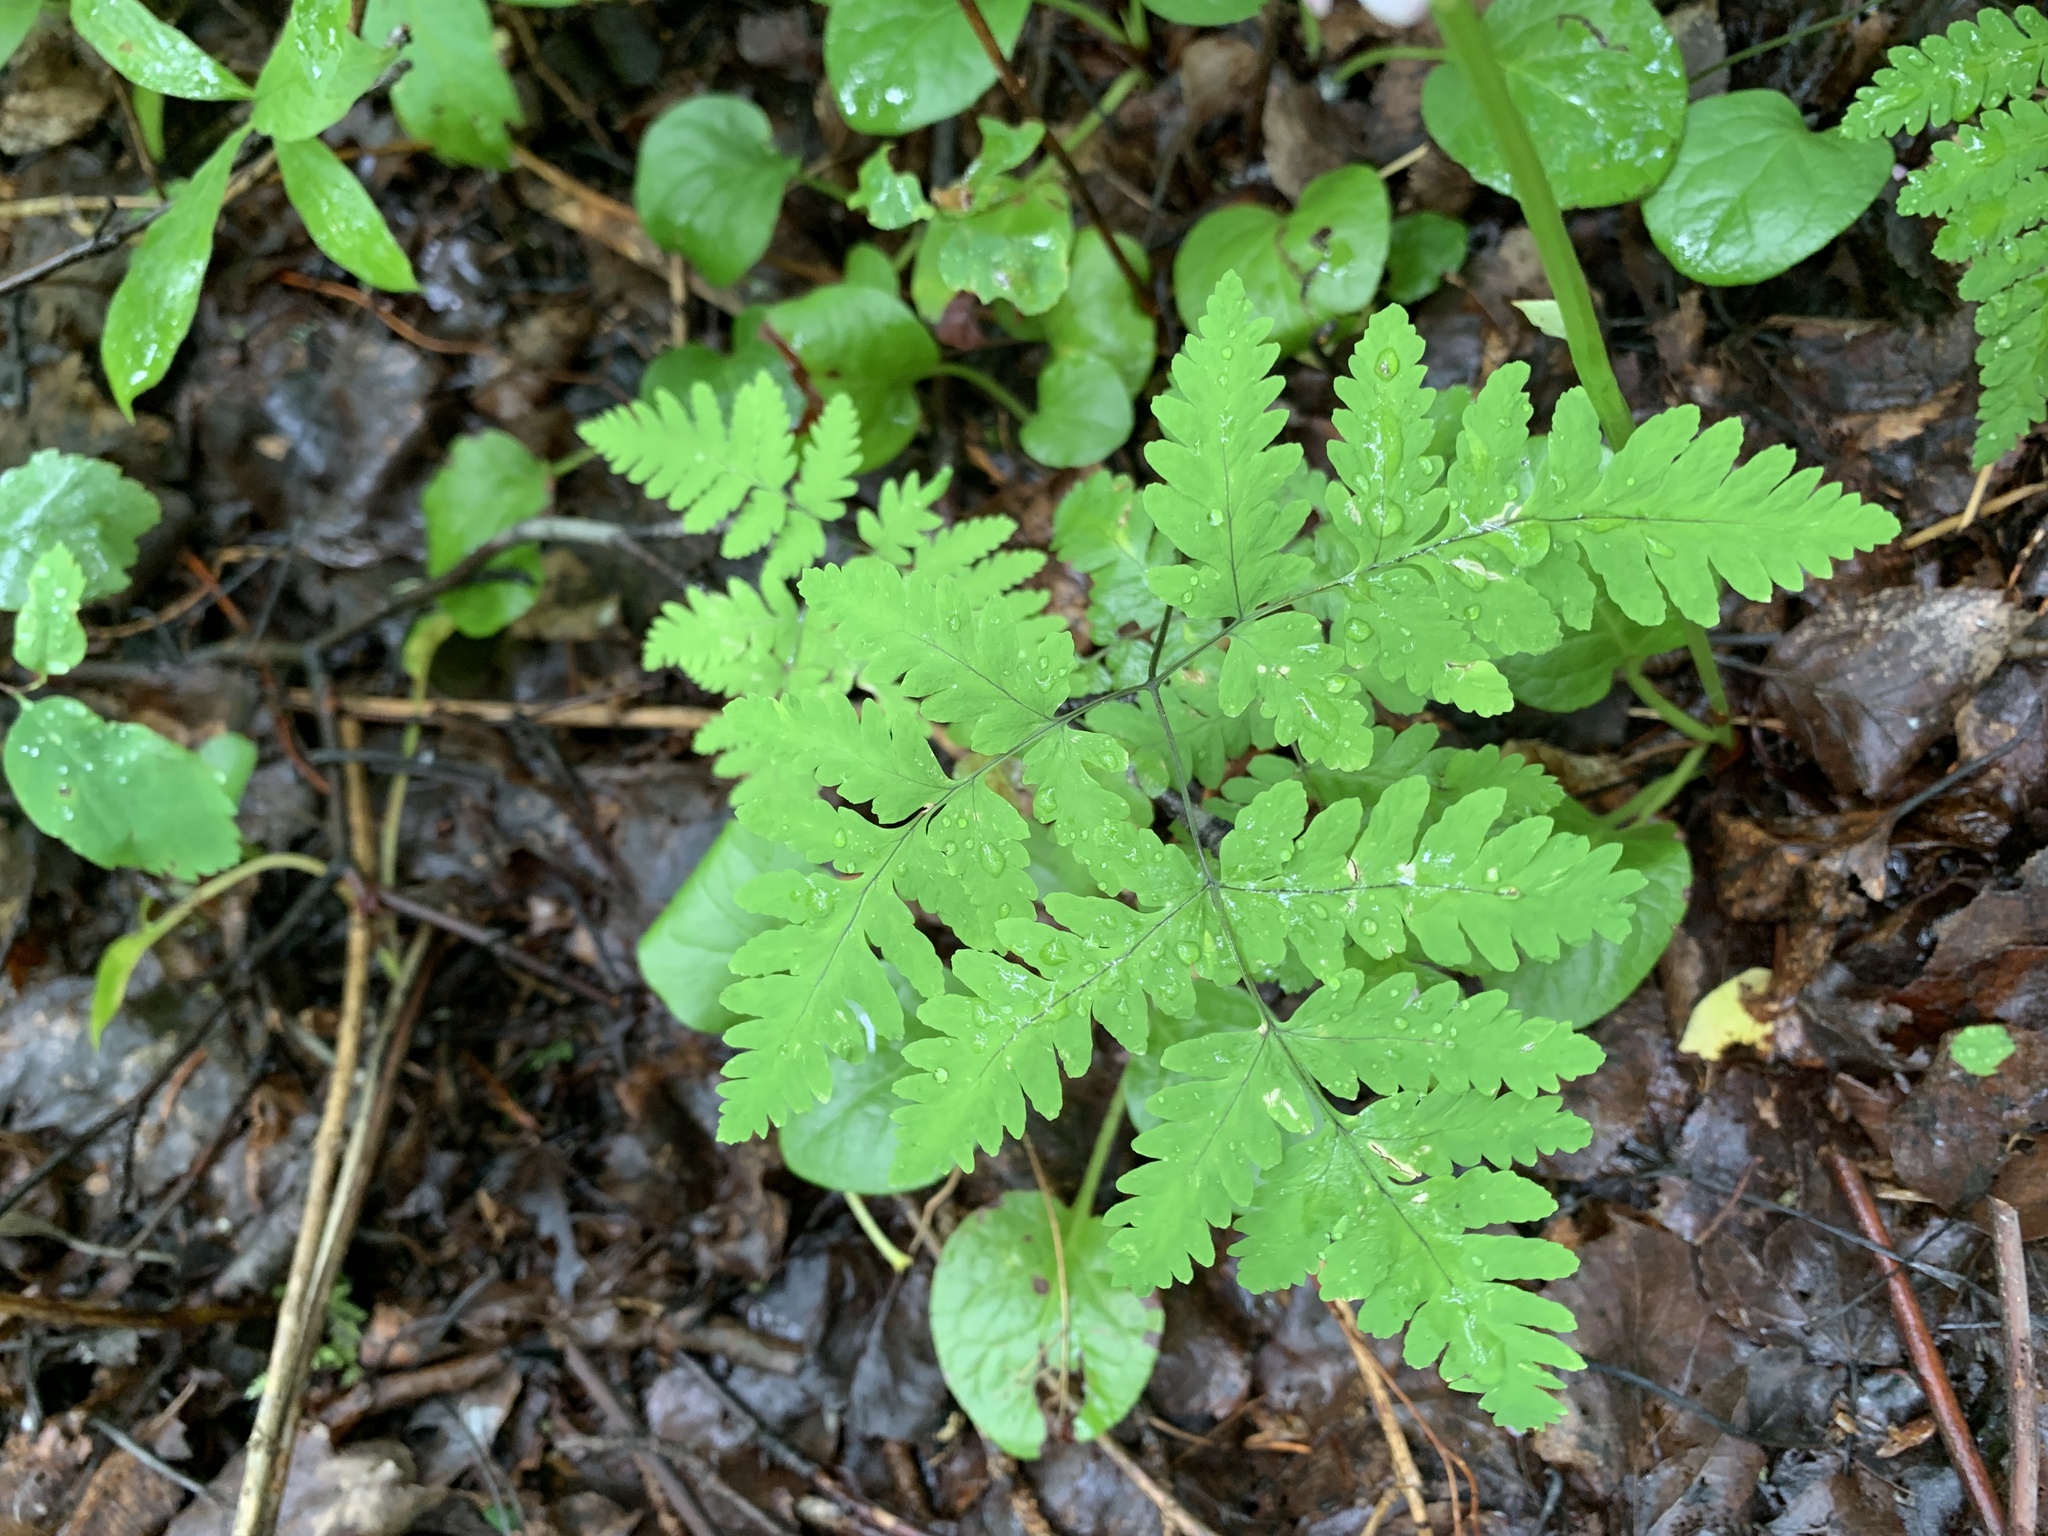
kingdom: Plantae
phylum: Tracheophyta
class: Polypodiopsida
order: Polypodiales
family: Cystopteridaceae
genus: Gymnocarpium
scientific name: Gymnocarpium dryopteris
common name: Oak fern
